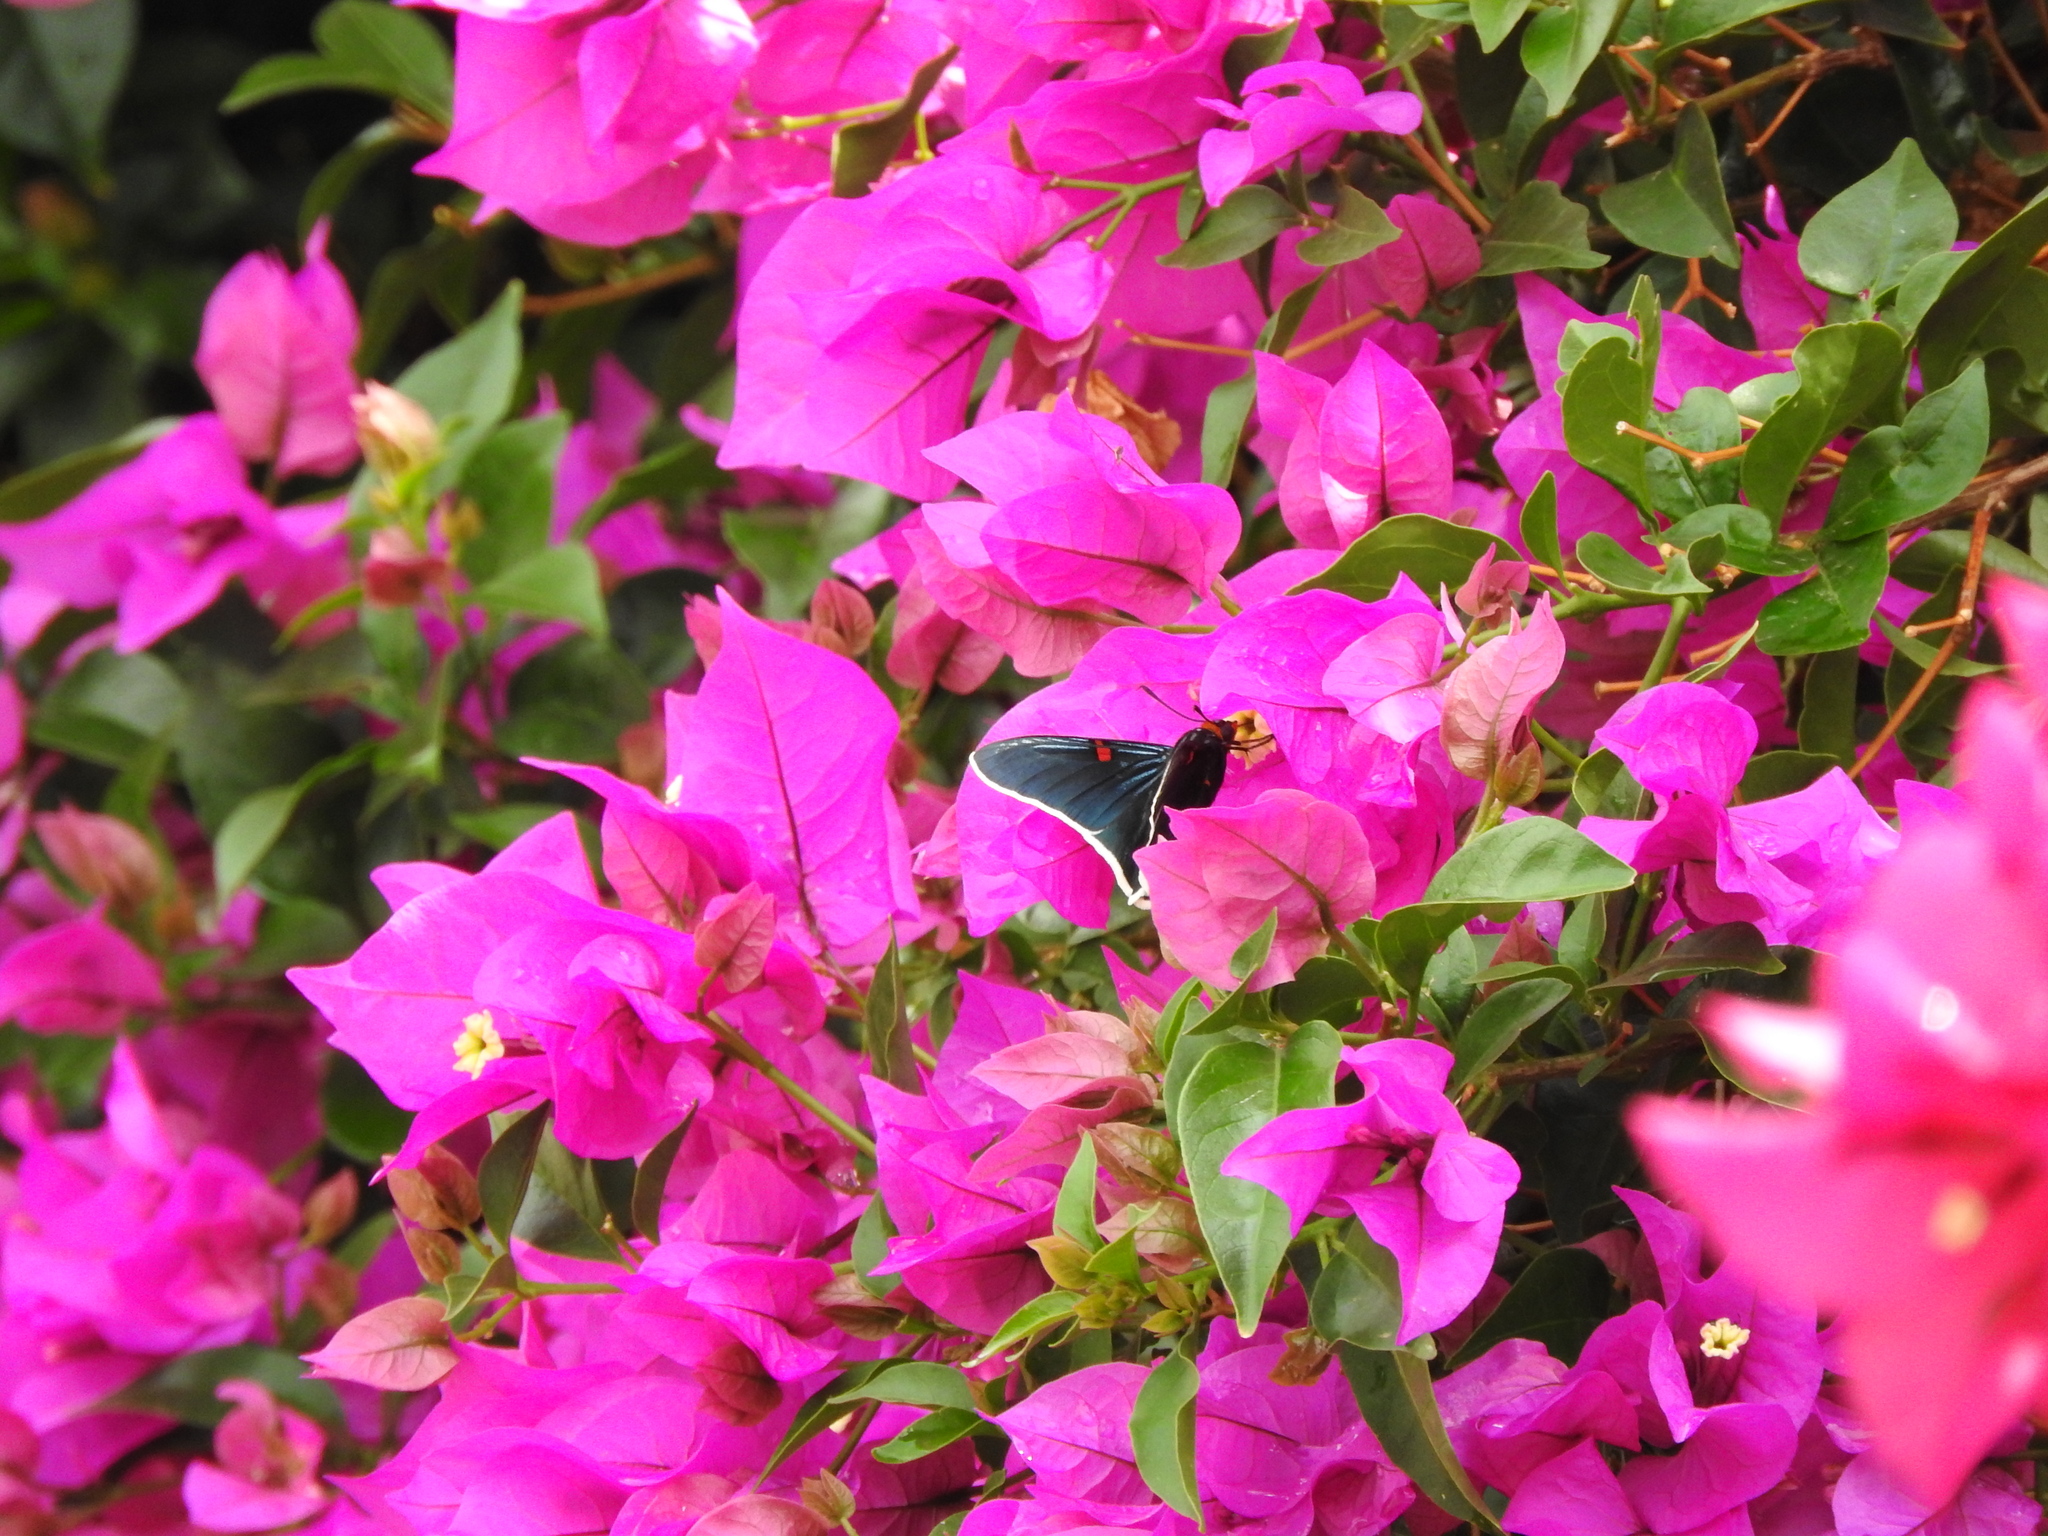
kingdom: Animalia
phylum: Arthropoda
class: Insecta
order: Lepidoptera
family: Hesperiidae
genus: Phocides
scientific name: Phocides lilea
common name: Guava skipper
